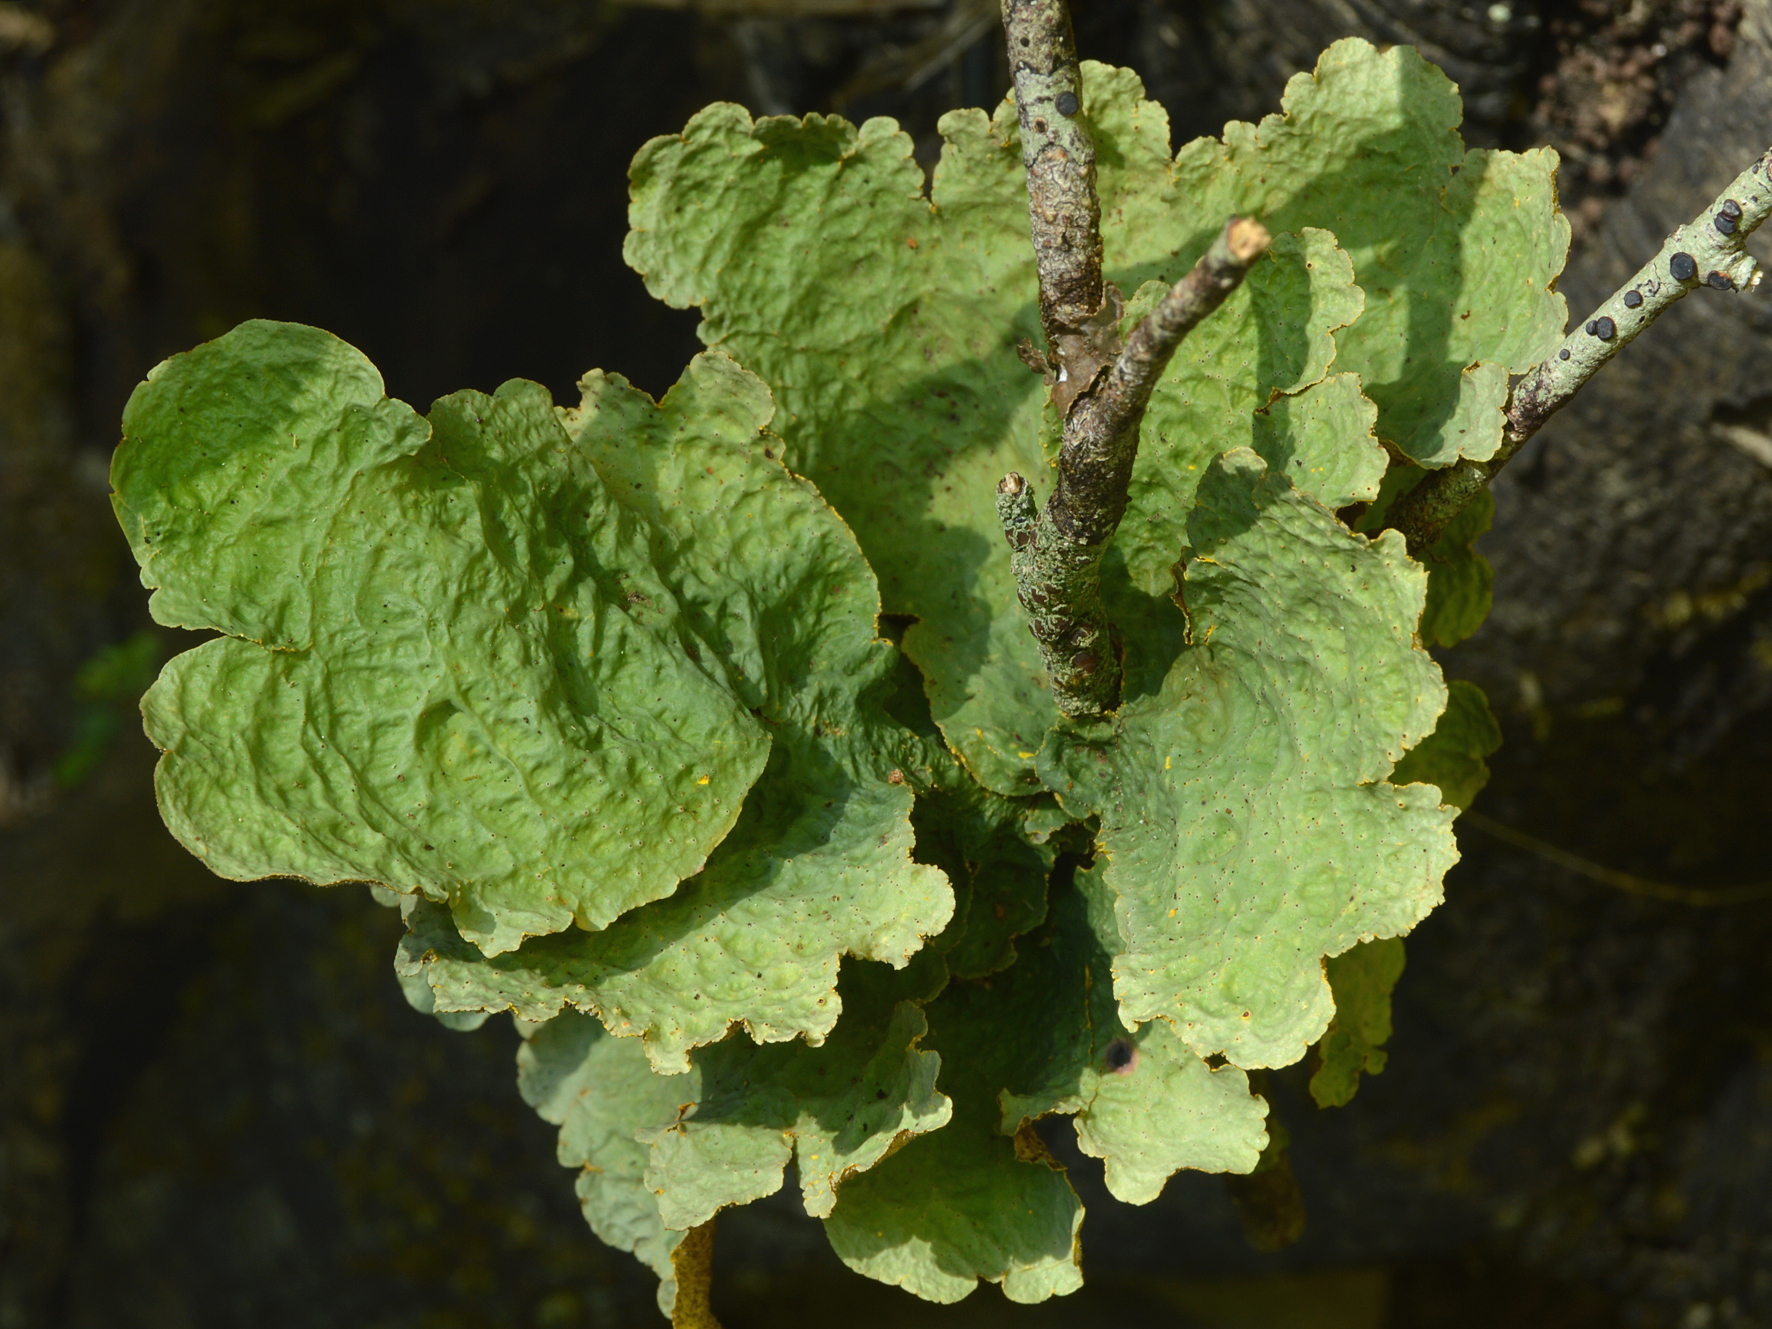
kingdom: Fungi
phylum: Ascomycota
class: Lecanoromycetes
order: Peltigerales
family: Lobariaceae
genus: Yarrumia
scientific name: Yarrumia coronata
